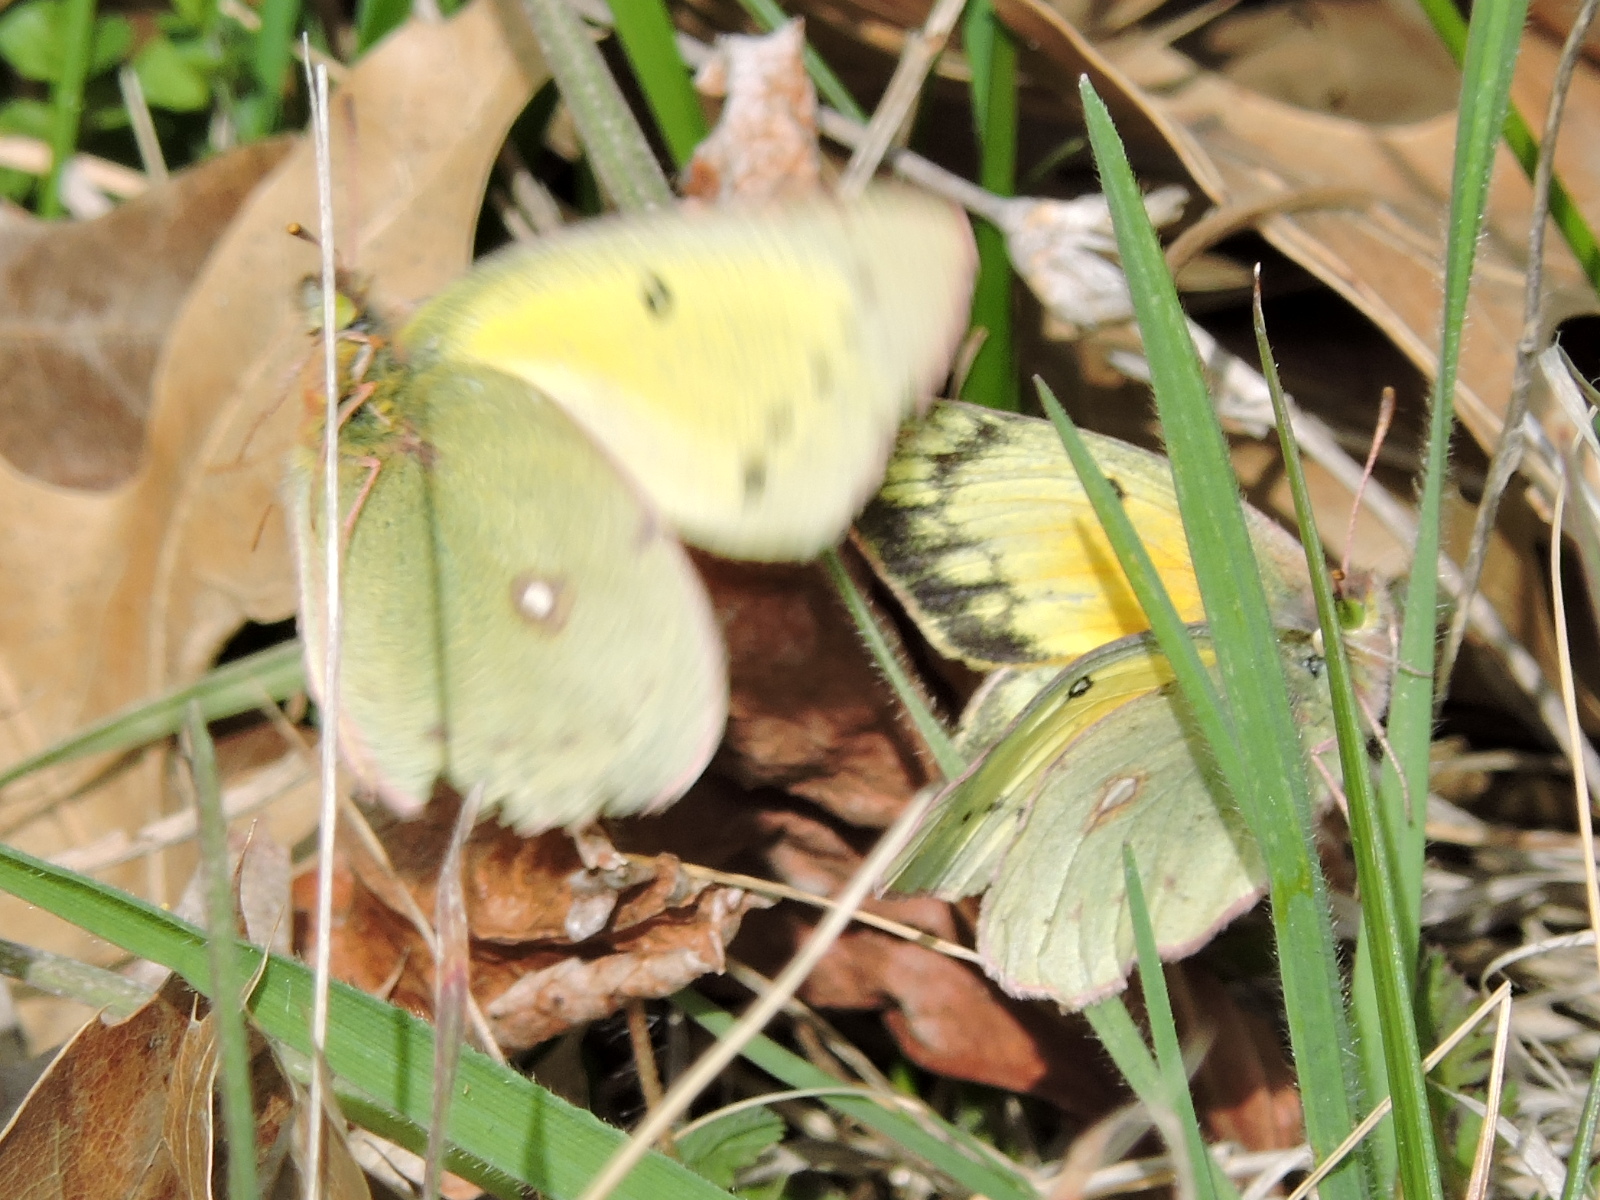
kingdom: Animalia
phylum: Arthropoda
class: Insecta
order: Lepidoptera
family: Pieridae
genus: Colias
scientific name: Colias eurytheme
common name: Alfalfa butterfly
